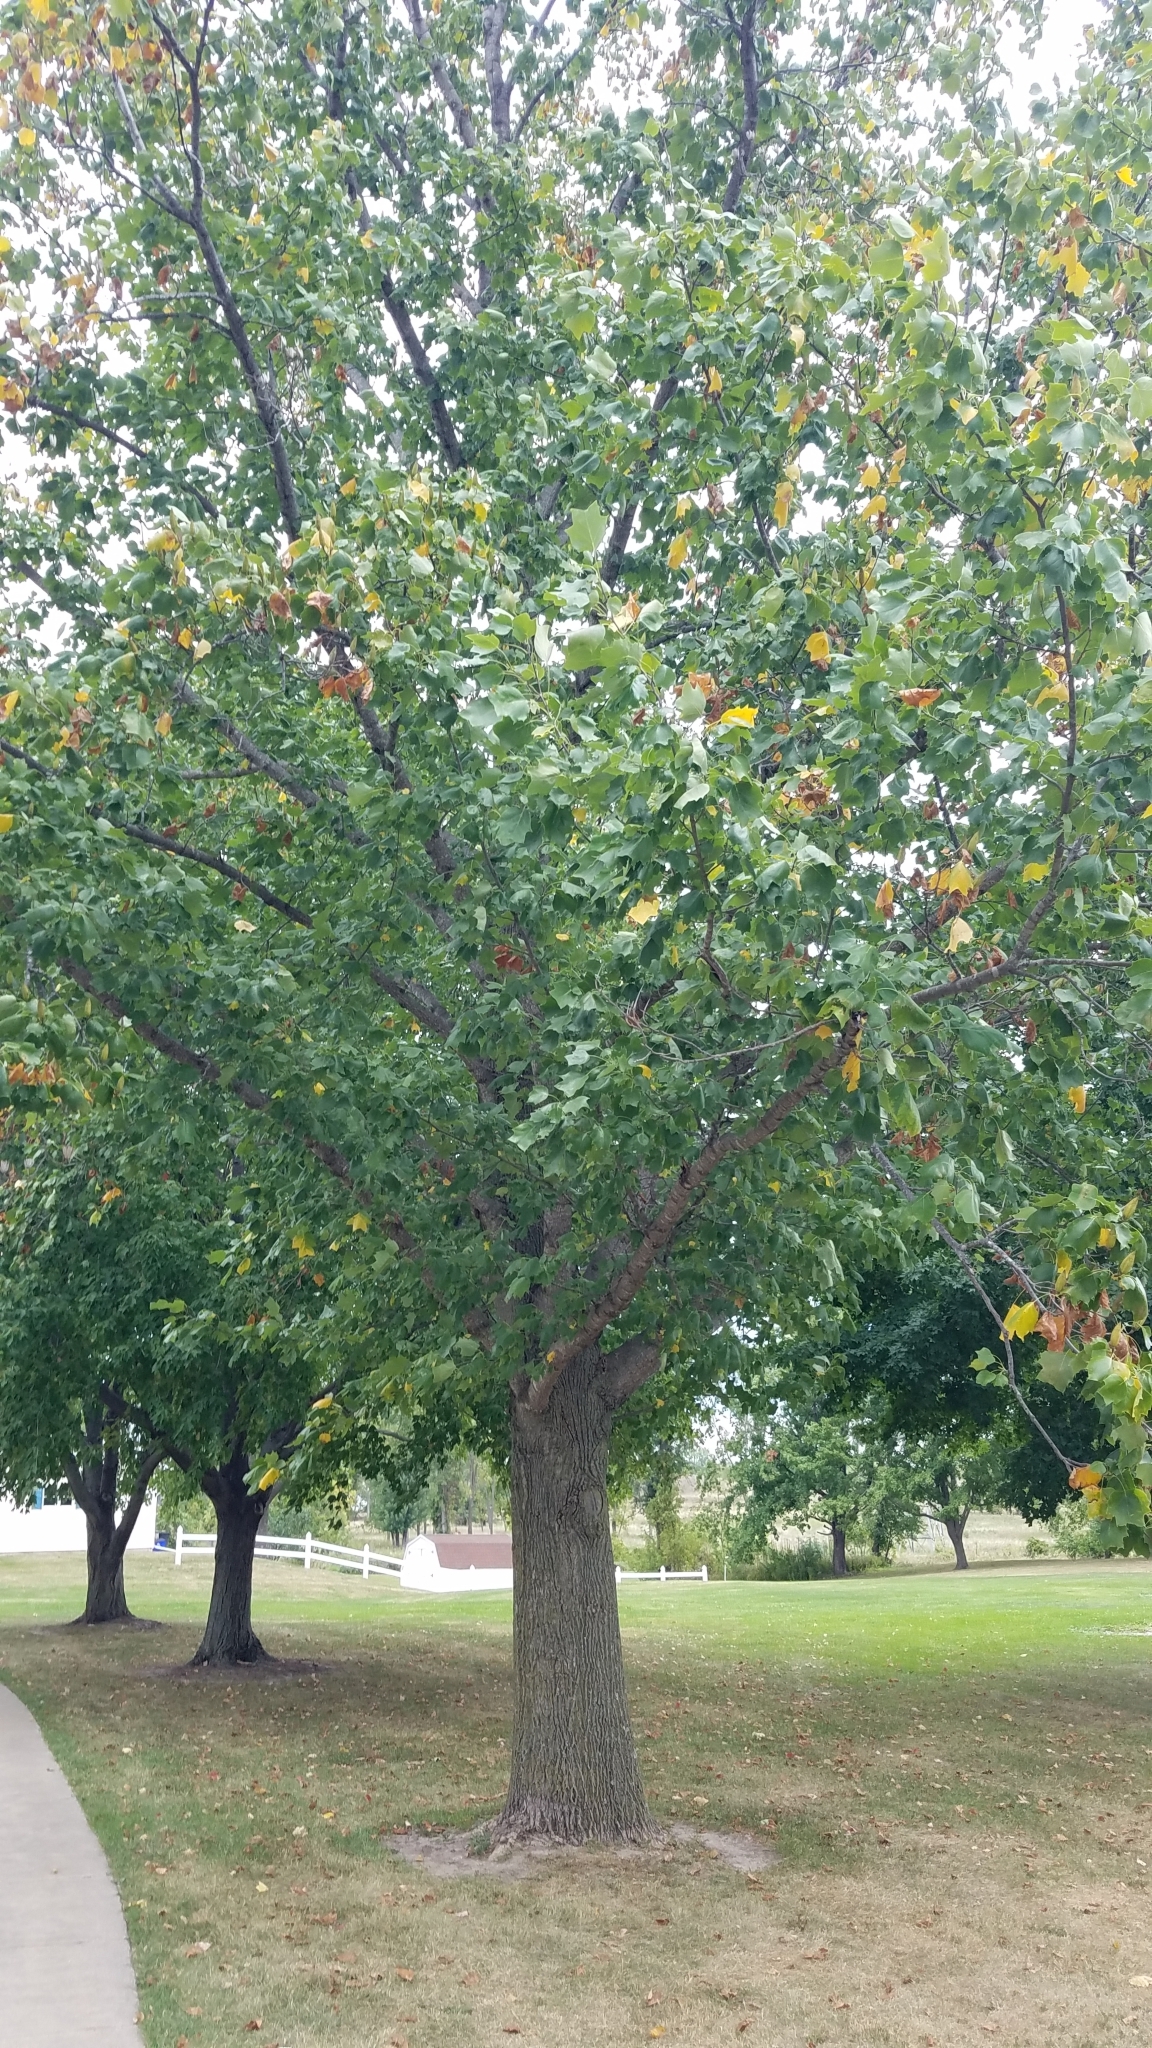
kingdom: Plantae
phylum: Tracheophyta
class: Magnoliopsida
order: Magnoliales
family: Magnoliaceae
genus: Liriodendron
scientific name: Liriodendron tulipifera
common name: Tulip tree
